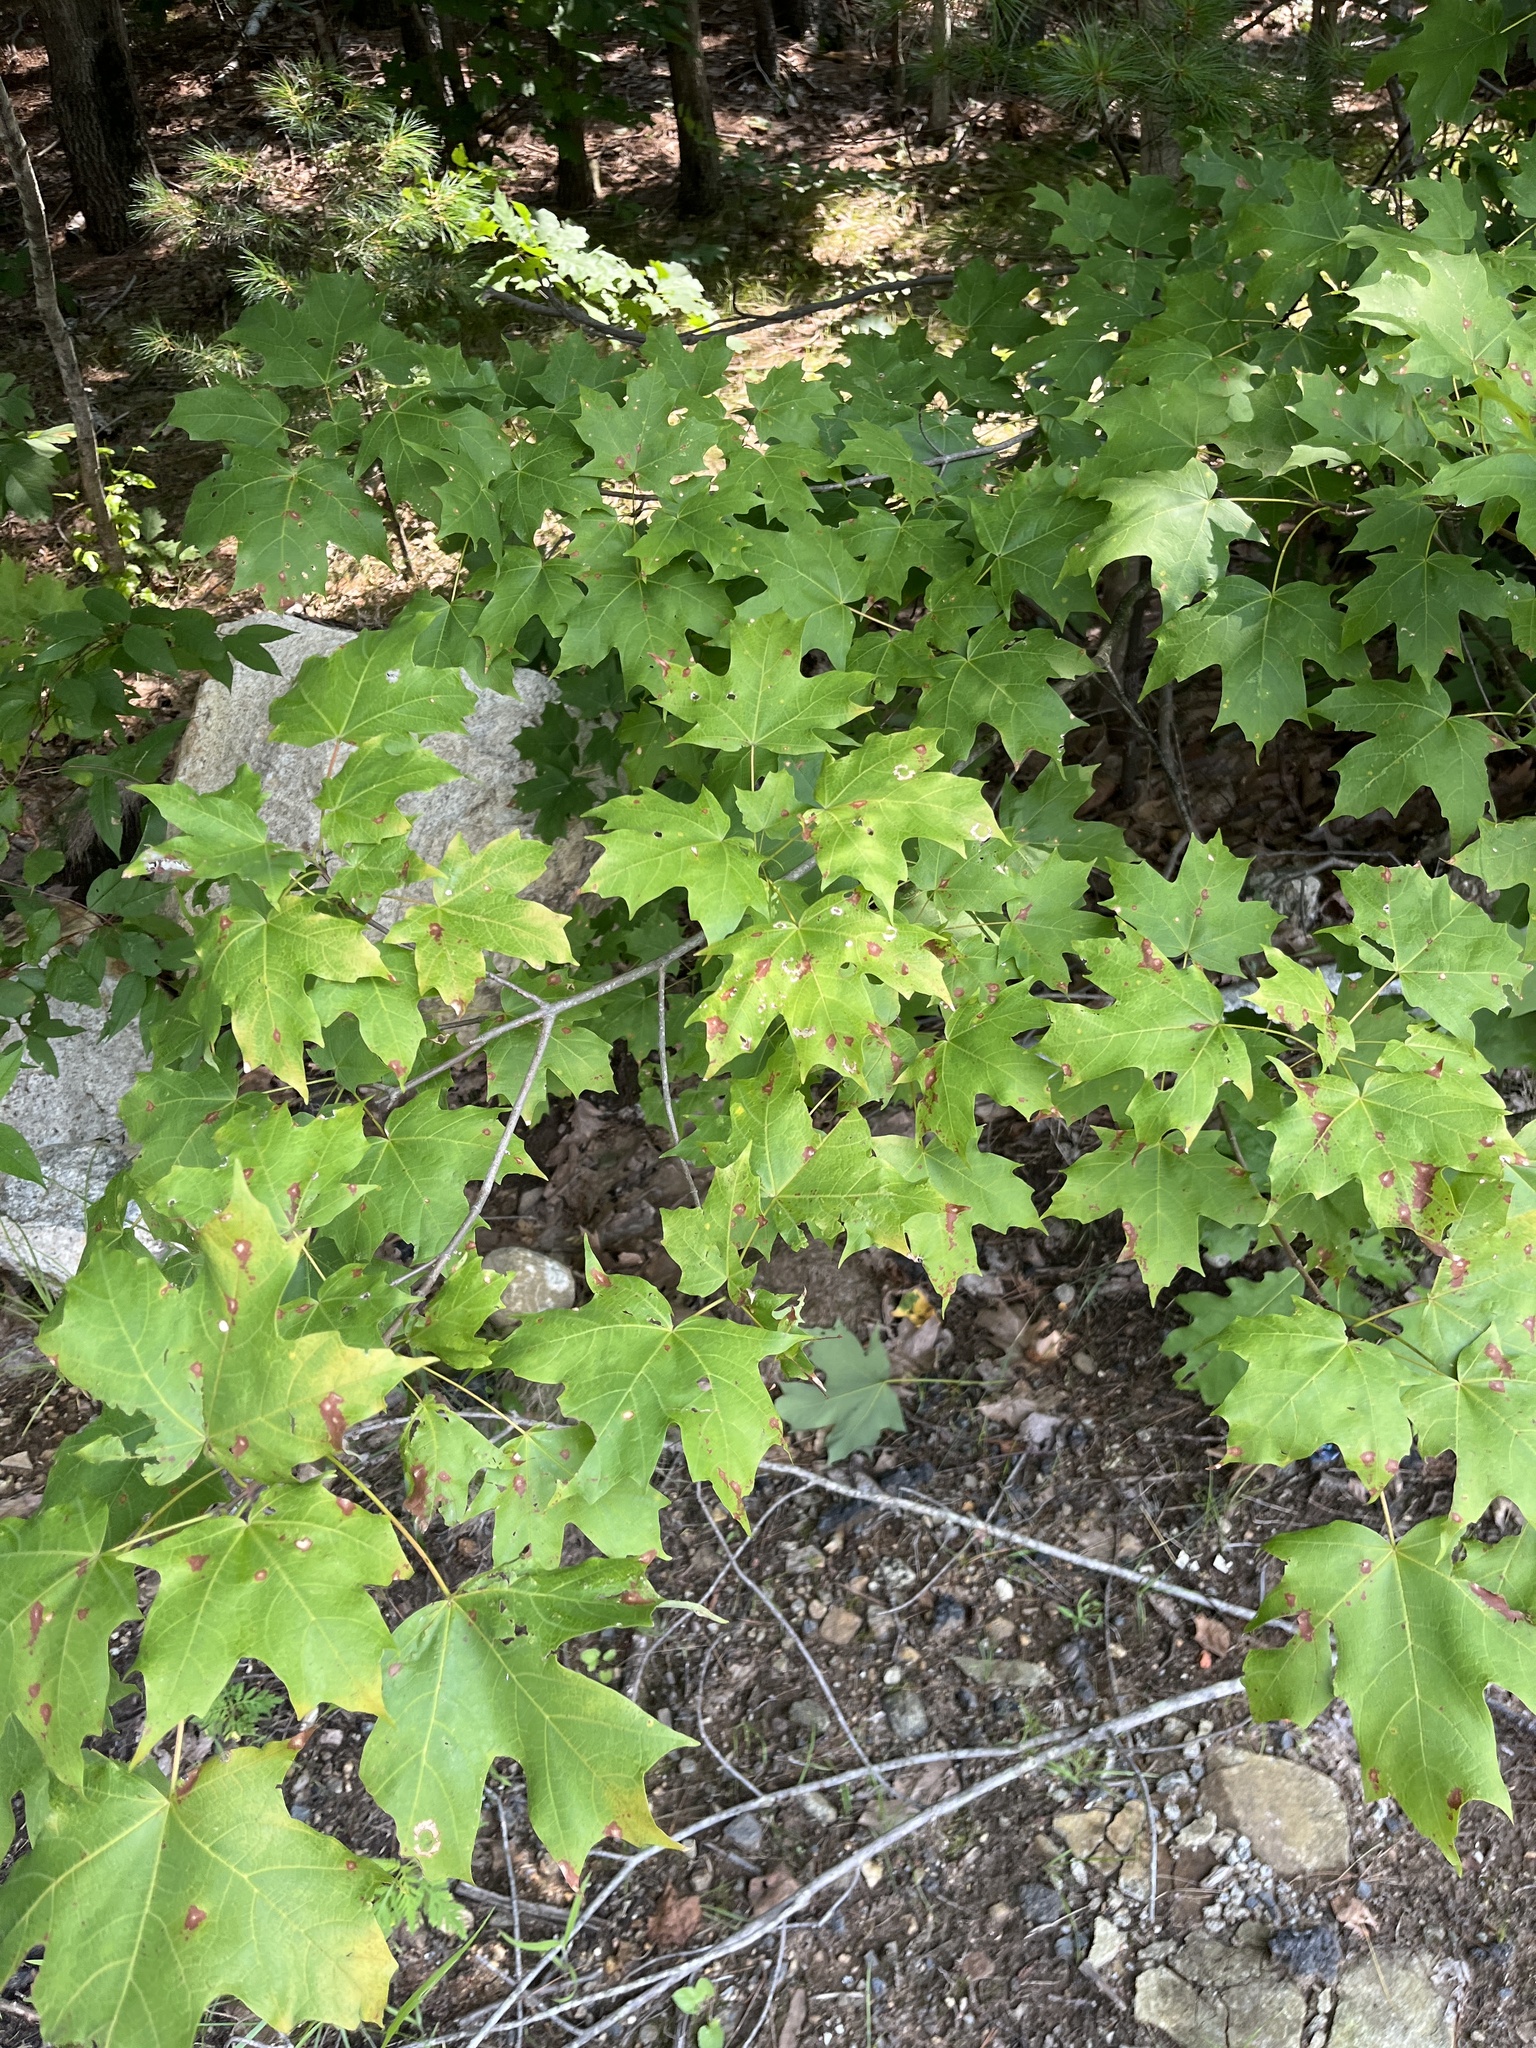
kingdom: Plantae
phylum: Tracheophyta
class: Magnoliopsida
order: Sapindales
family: Sapindaceae
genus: Acer
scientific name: Acer saccharum
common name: Sugar maple
